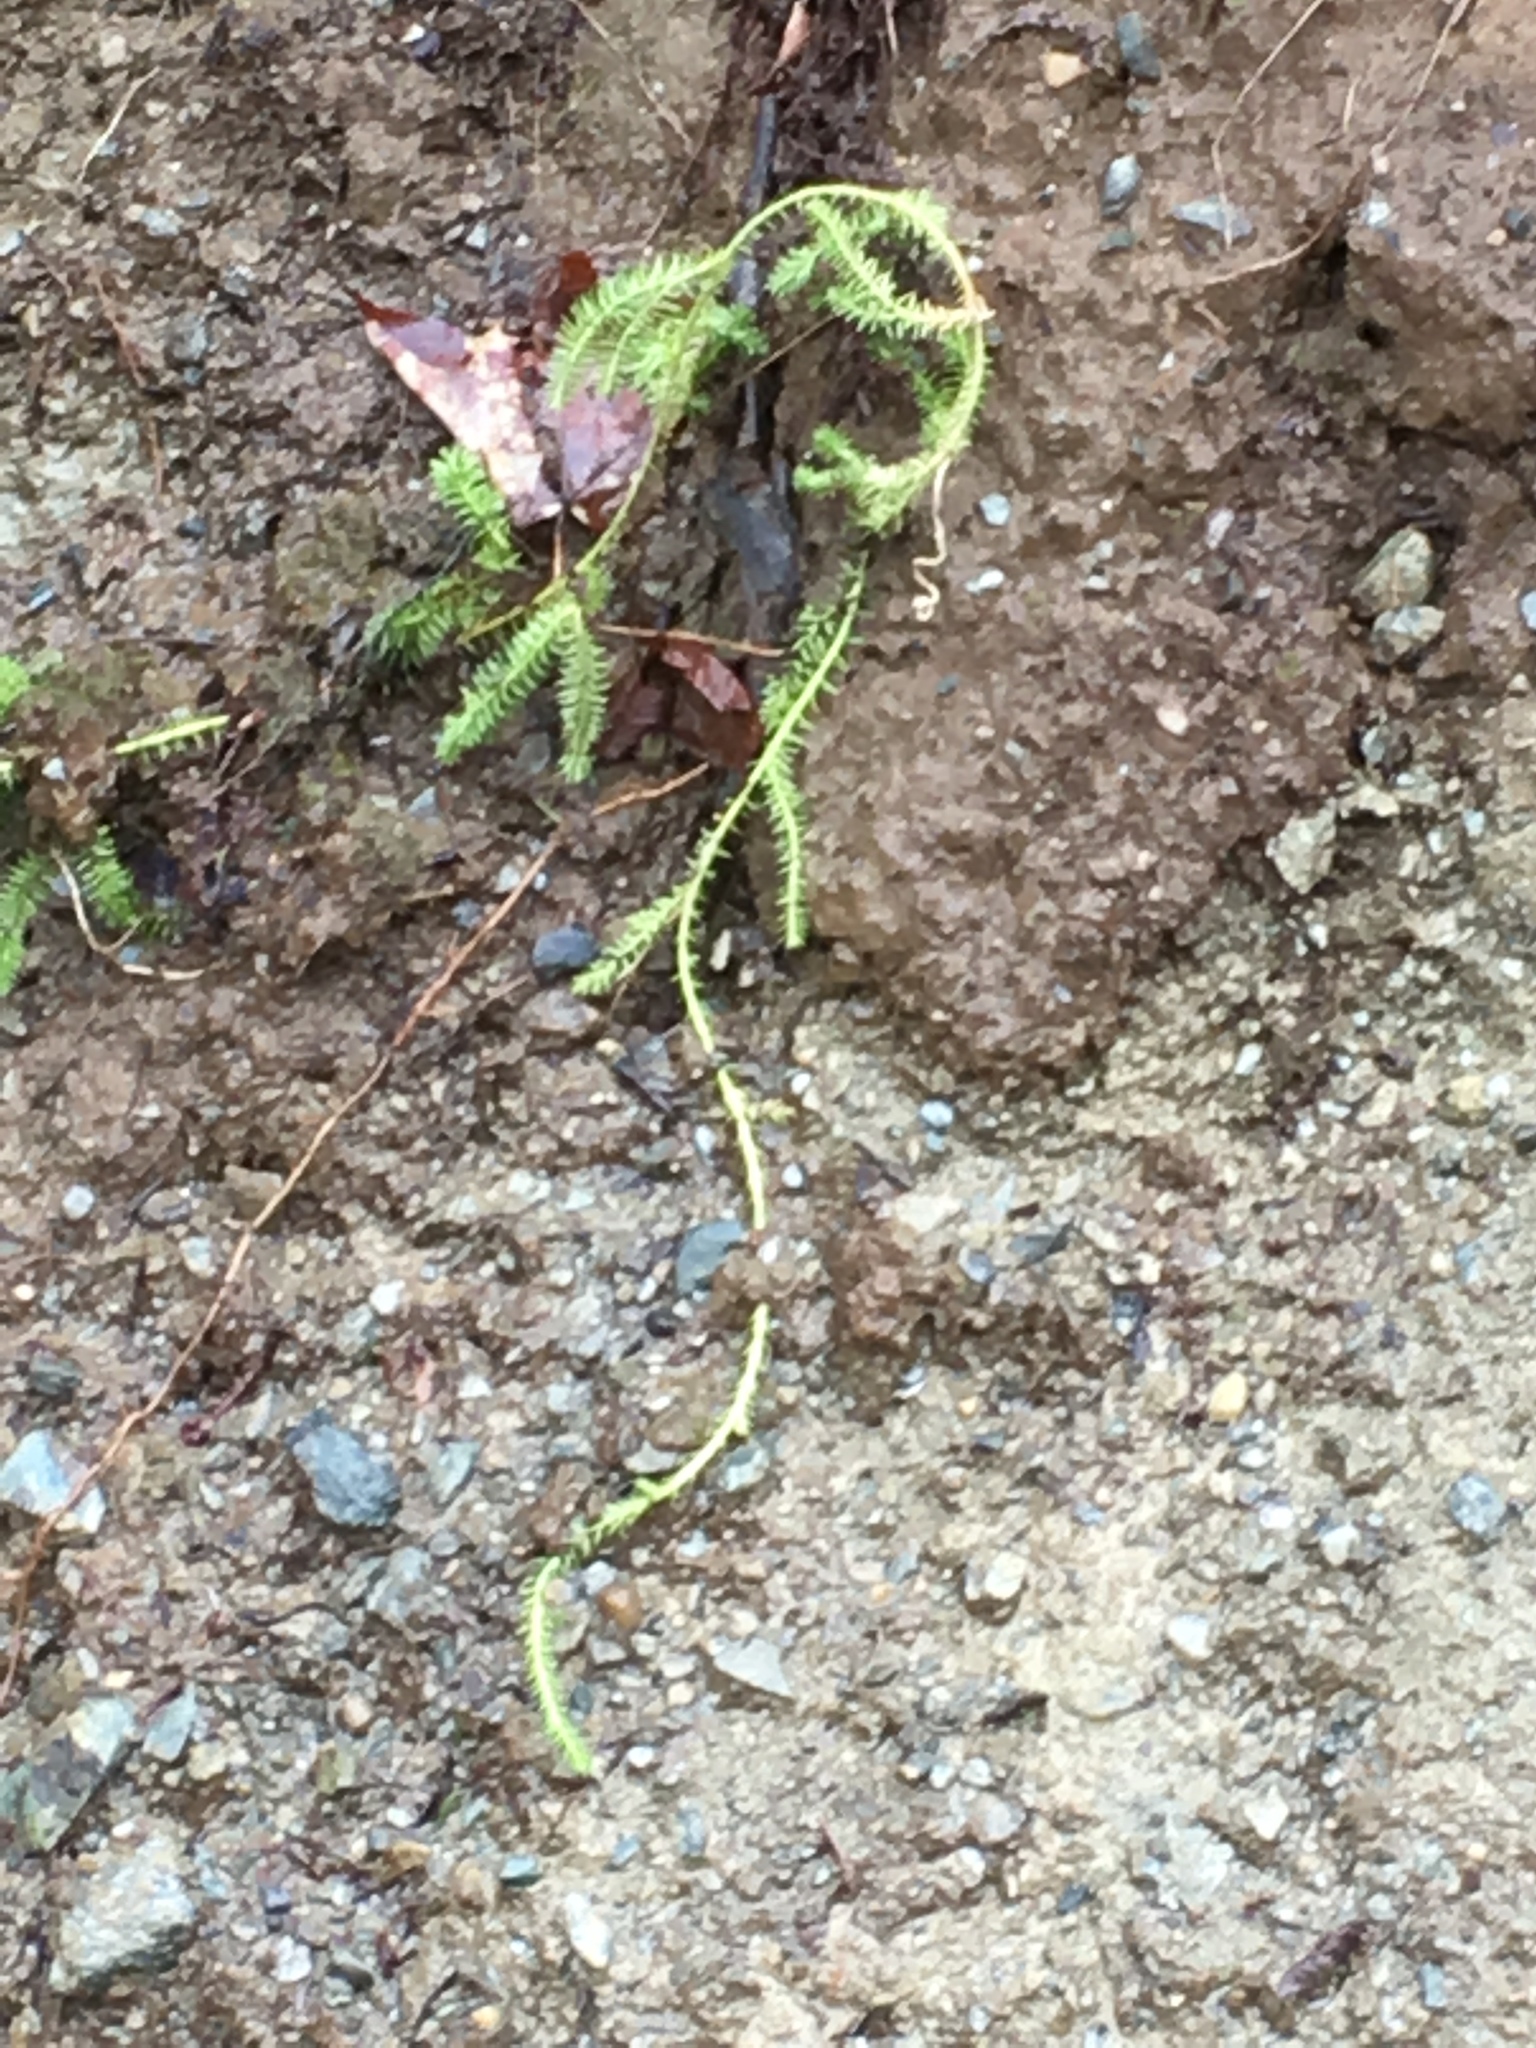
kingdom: Plantae
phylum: Tracheophyta
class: Lycopodiopsida
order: Lycopodiales
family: Lycopodiaceae
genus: Lycopodium
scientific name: Lycopodium clavatum
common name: Stag's-horn clubmoss
